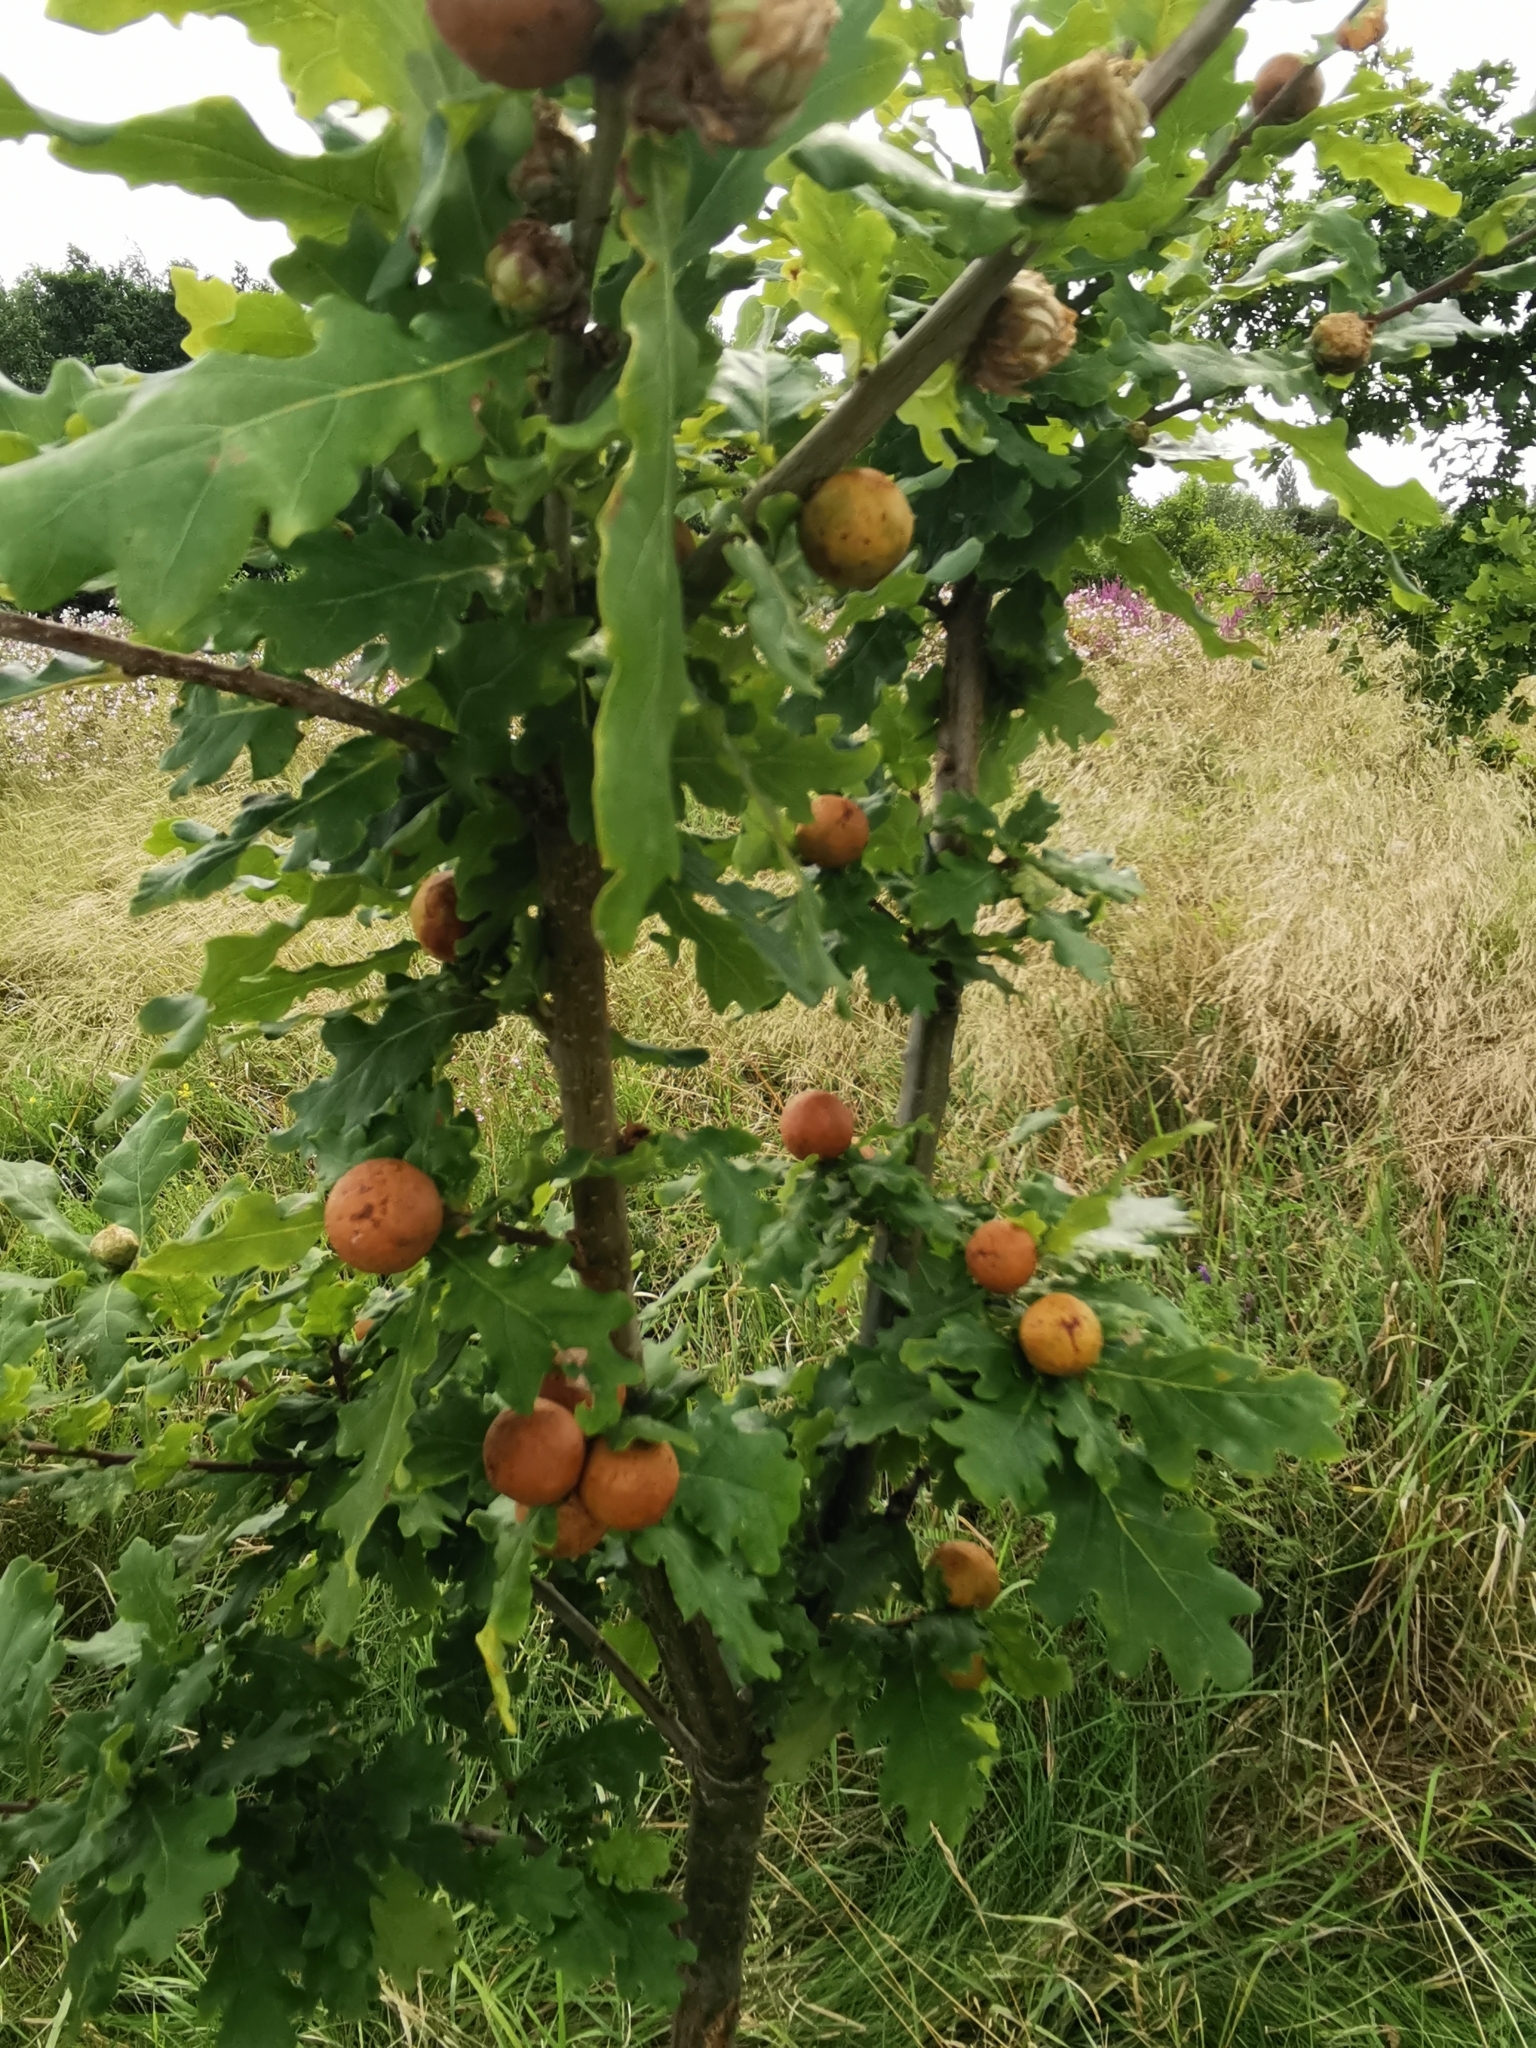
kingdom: Animalia
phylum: Arthropoda
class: Insecta
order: Hymenoptera
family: Cynipidae
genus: Andricus
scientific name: Andricus kollari
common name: Marble gall
